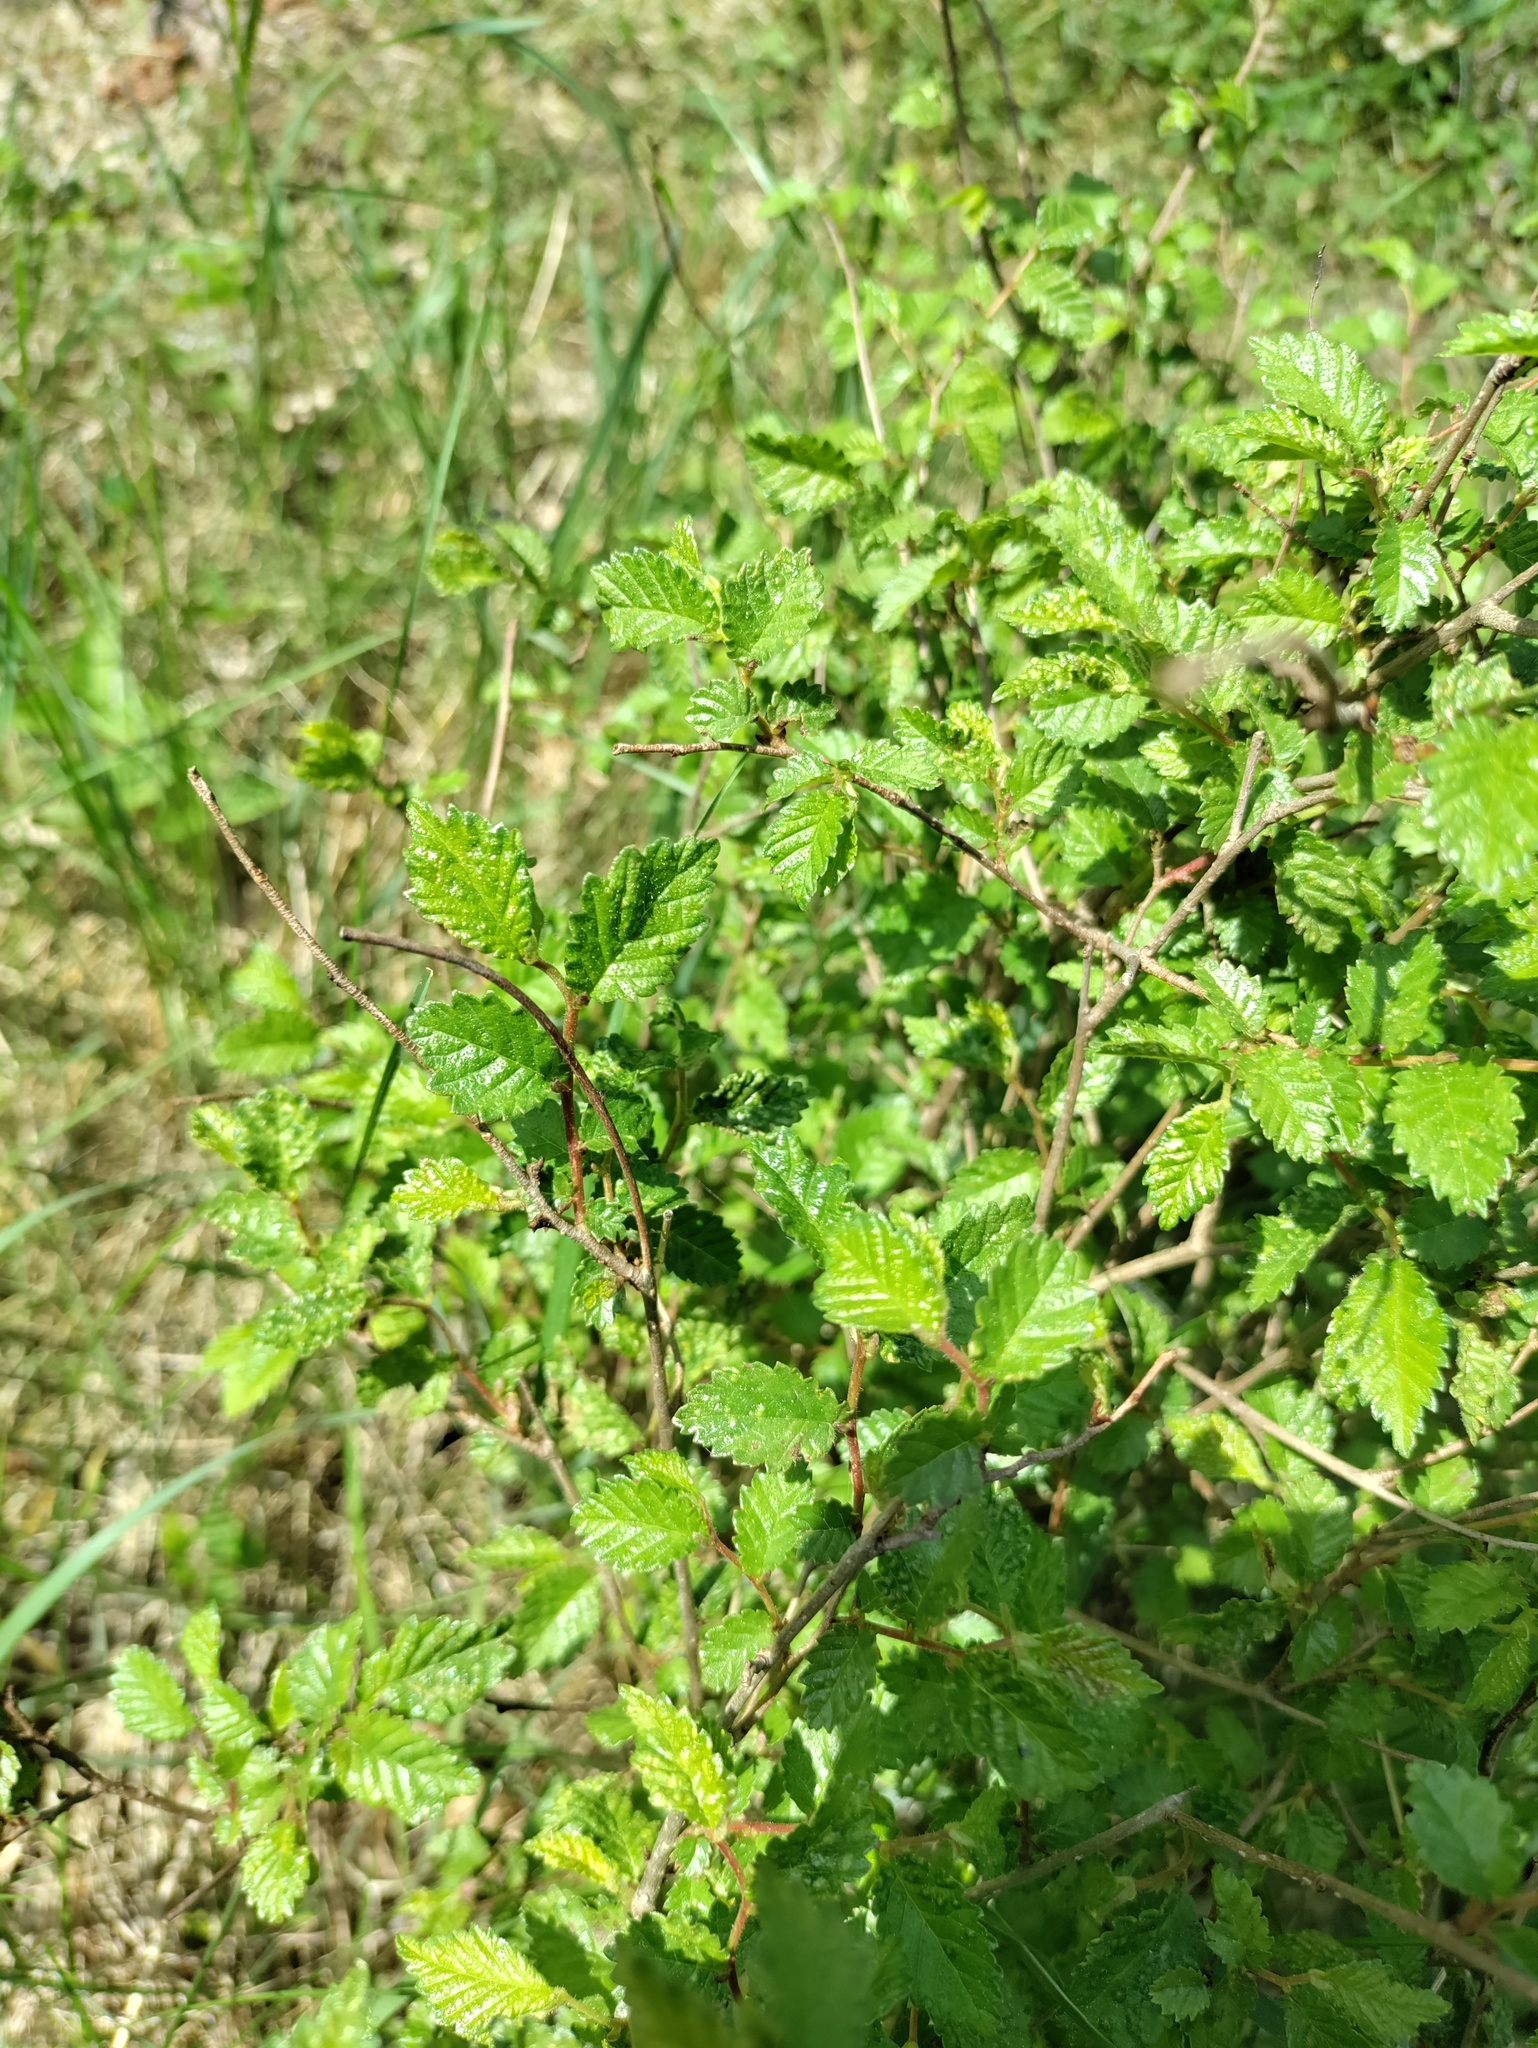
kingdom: Plantae
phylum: Tracheophyta
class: Magnoliopsida
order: Rosales
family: Ulmaceae
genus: Ulmus
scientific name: Ulmus minor
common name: Small-leaved elm
